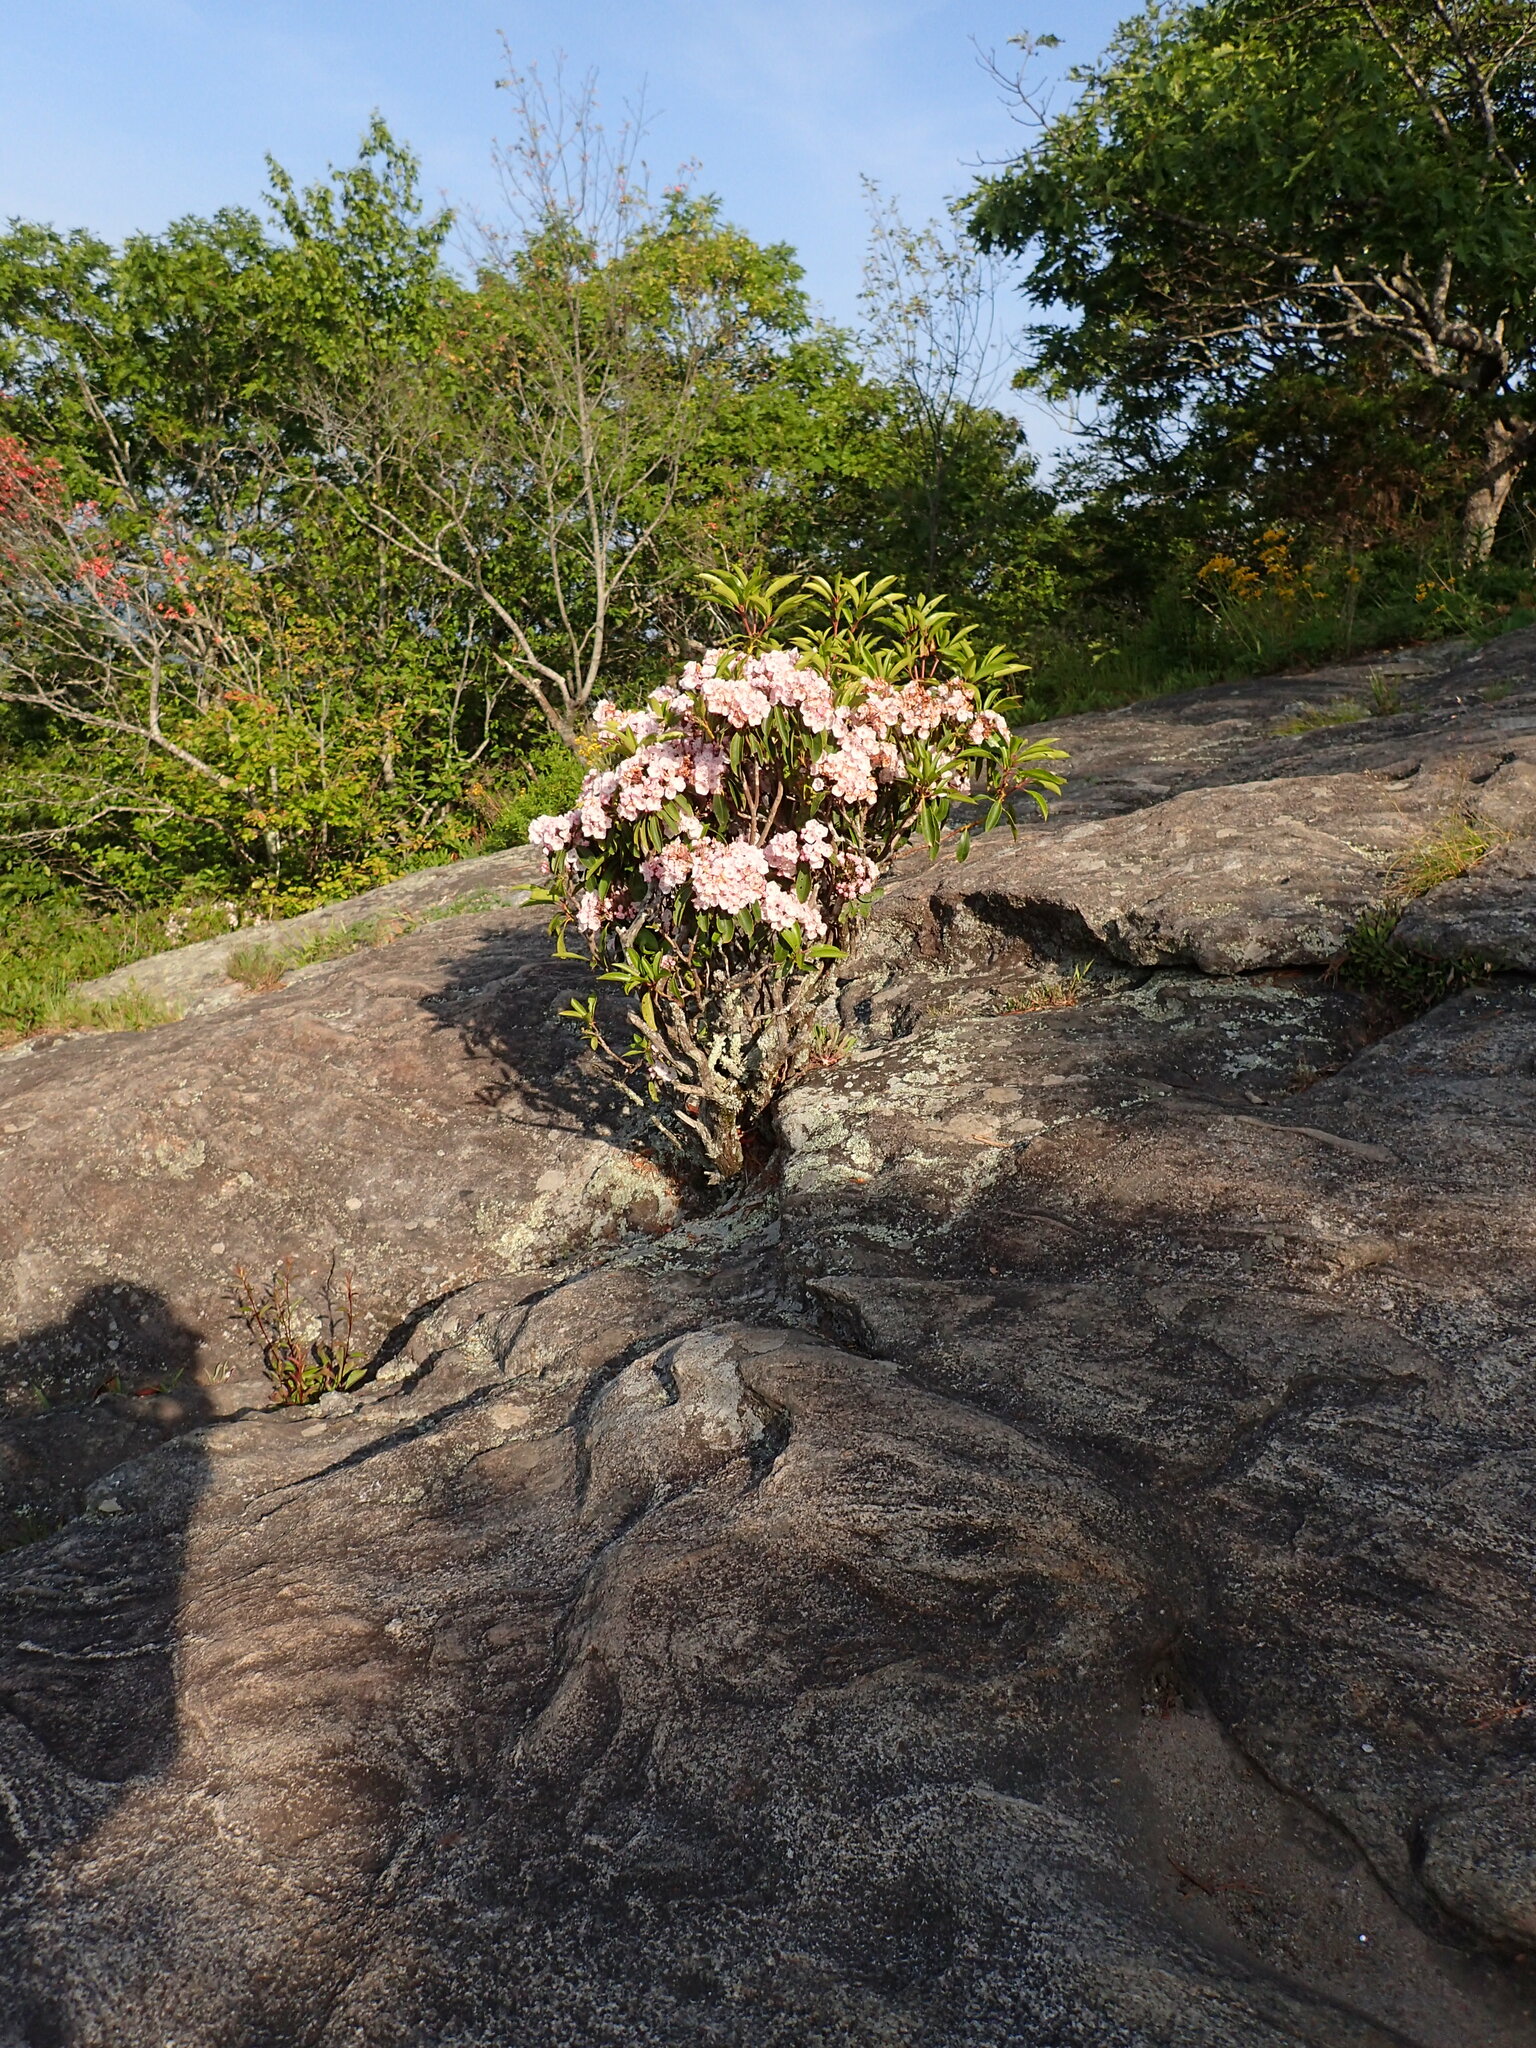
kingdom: Plantae
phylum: Tracheophyta
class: Magnoliopsida
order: Ericales
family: Ericaceae
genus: Kalmia
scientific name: Kalmia latifolia
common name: Mountain-laurel
